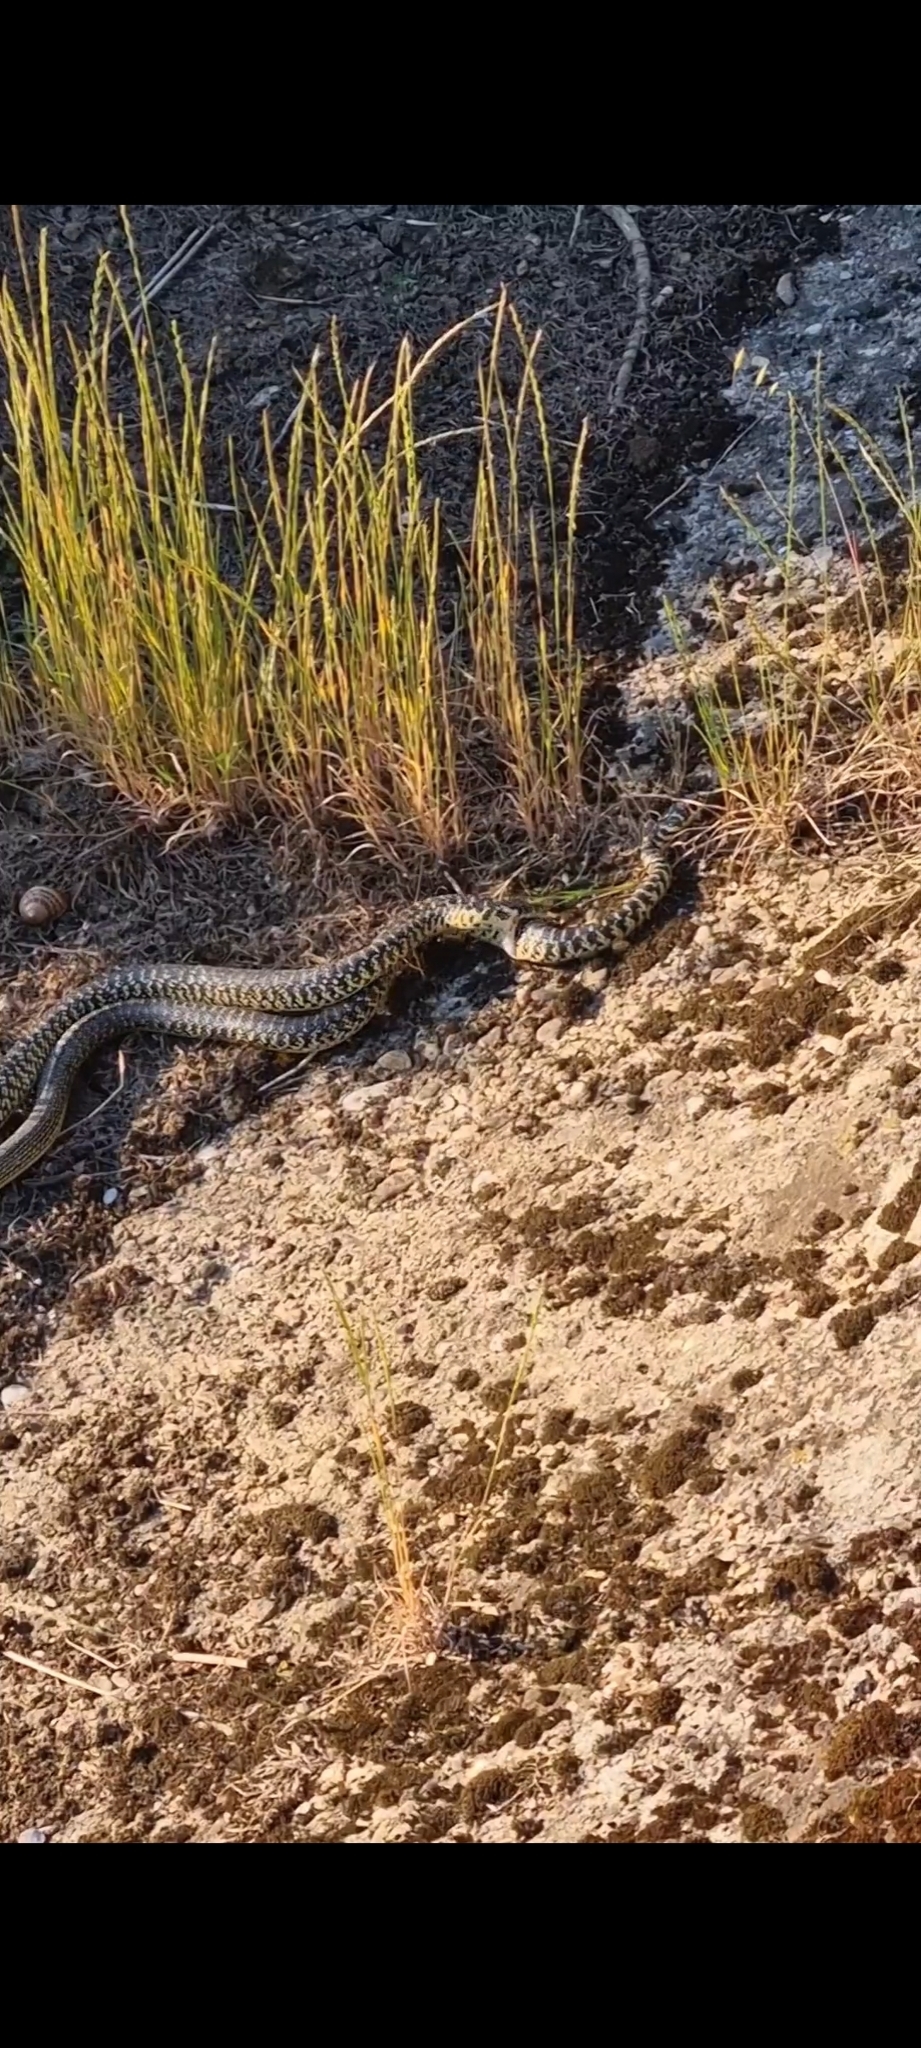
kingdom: Animalia
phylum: Chordata
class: Squamata
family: Colubridae
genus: Hierophis
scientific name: Hierophis viridiflavus
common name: Green whip snake
